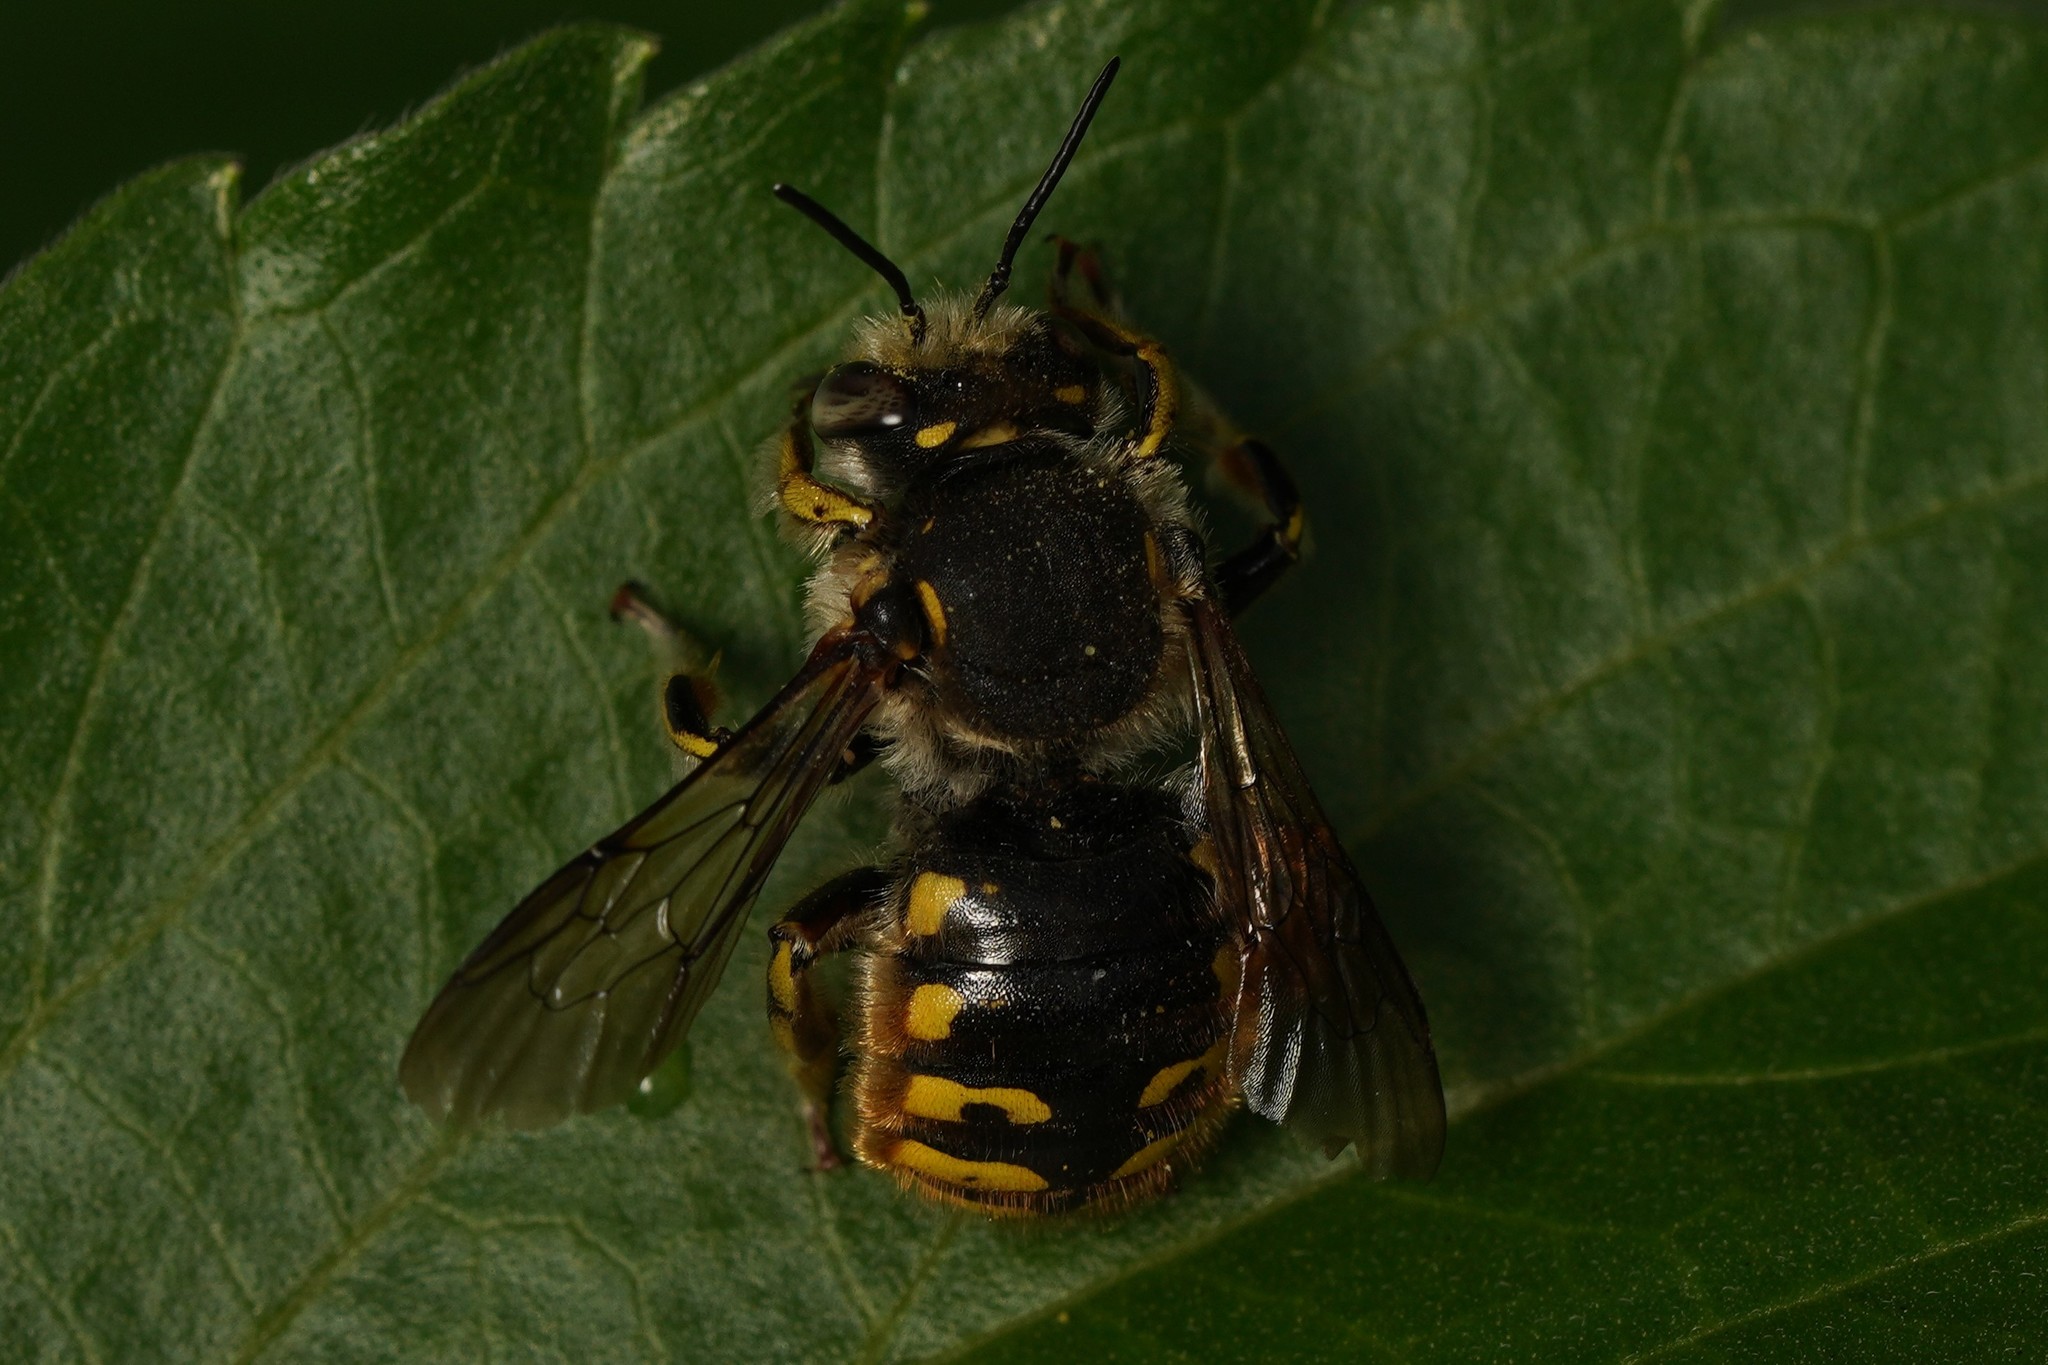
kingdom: Animalia
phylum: Arthropoda
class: Insecta
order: Hymenoptera
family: Megachilidae
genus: Anthidium
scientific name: Anthidium manicatum
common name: Wool carder bee
